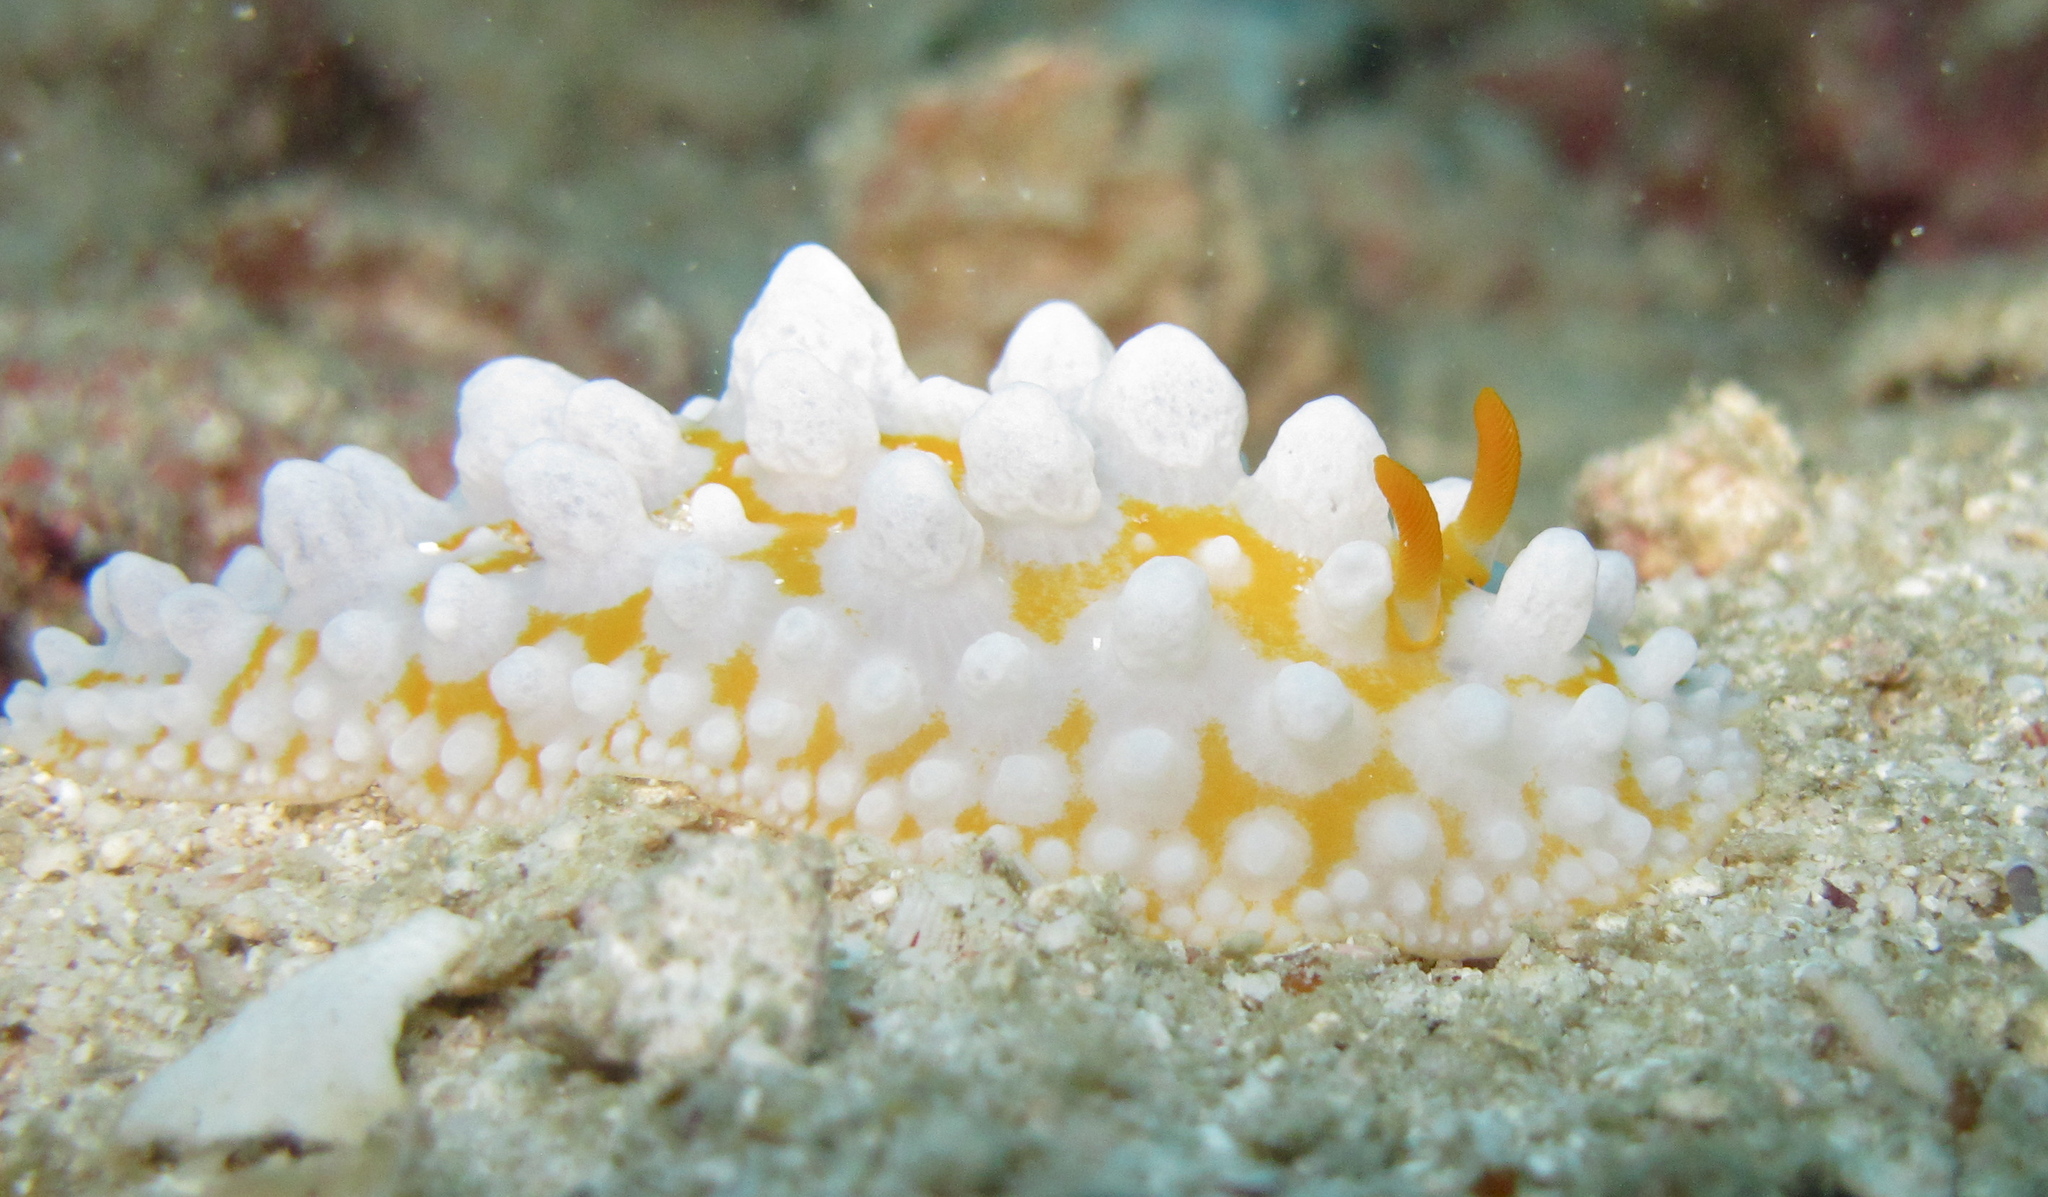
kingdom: Animalia
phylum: Mollusca
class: Gastropoda
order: Nudibranchia
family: Phyllidiidae
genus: Phyllidia
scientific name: Phyllidia ocellata
